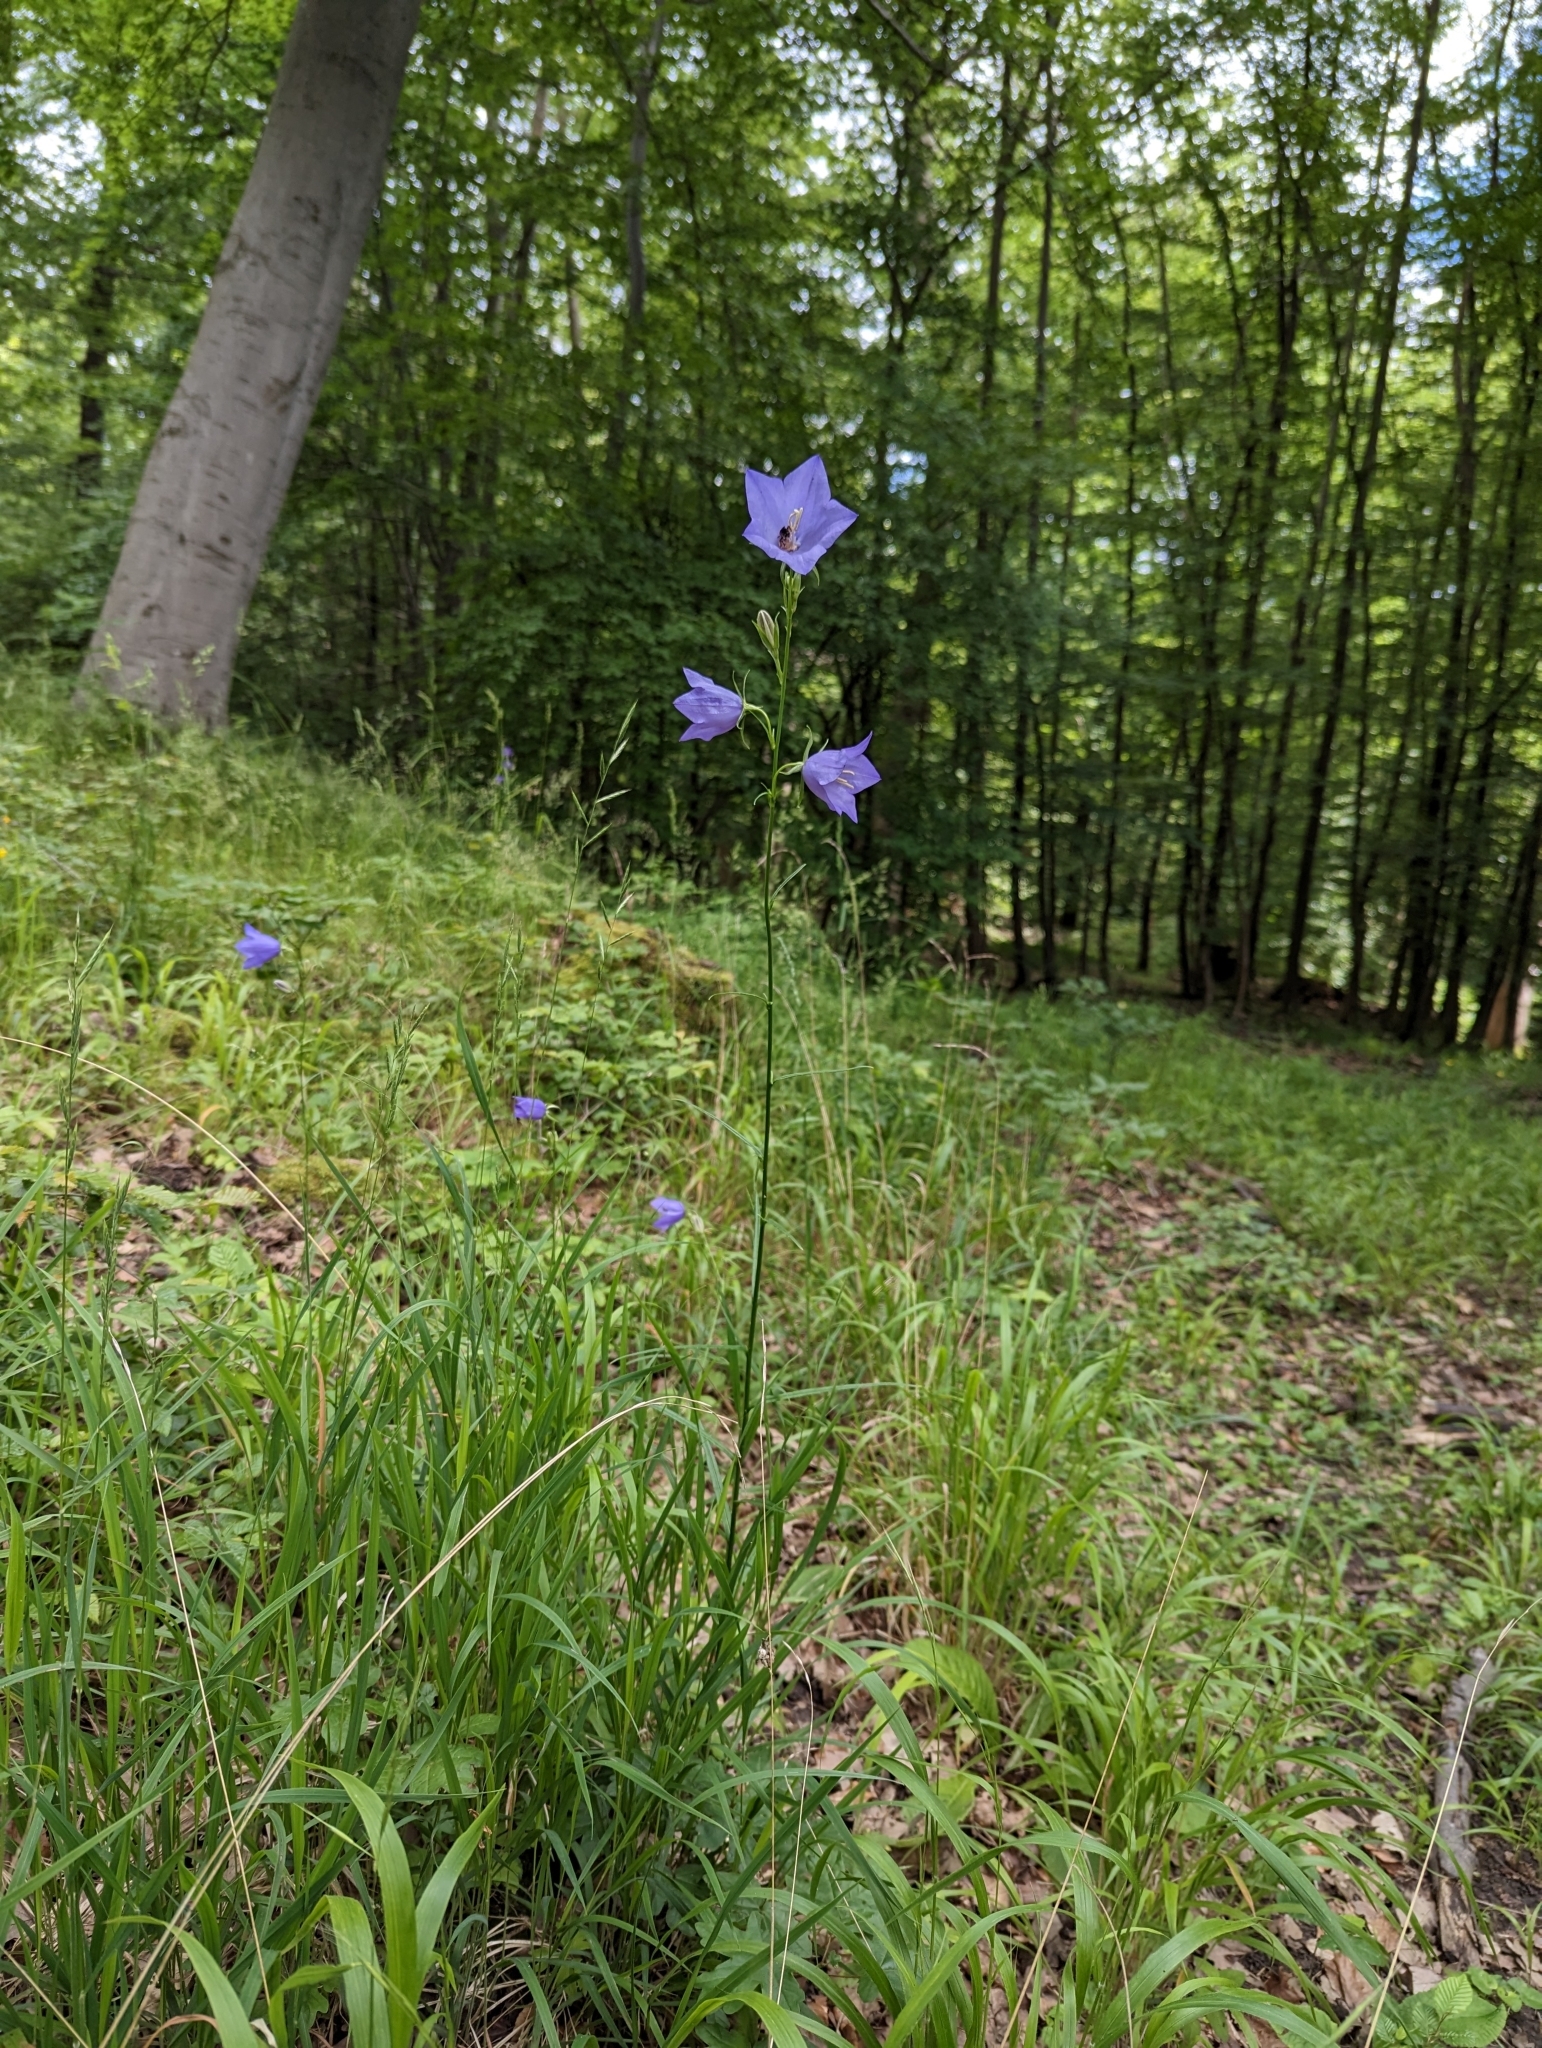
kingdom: Plantae
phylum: Tracheophyta
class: Magnoliopsida
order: Asterales
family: Campanulaceae
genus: Campanula
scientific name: Campanula persicifolia
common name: Peach-leaved bellflower
